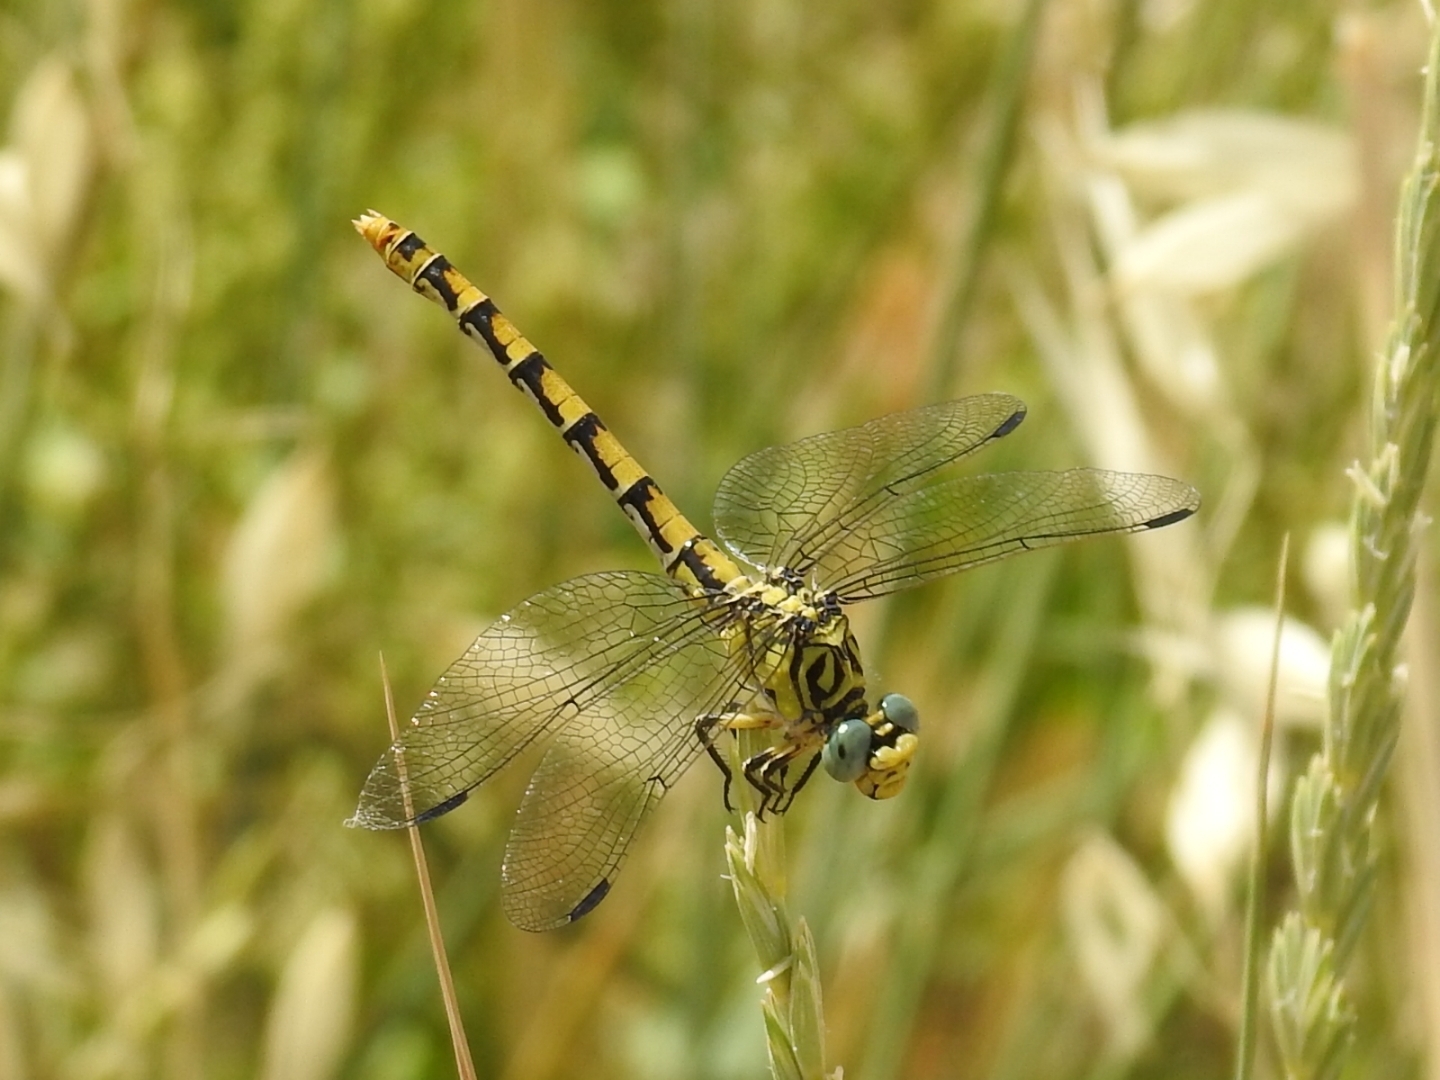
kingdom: Animalia
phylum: Arthropoda
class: Insecta
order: Odonata
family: Gomphidae
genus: Onychogomphus
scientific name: Onychogomphus forcipatus
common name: Small pincertail
